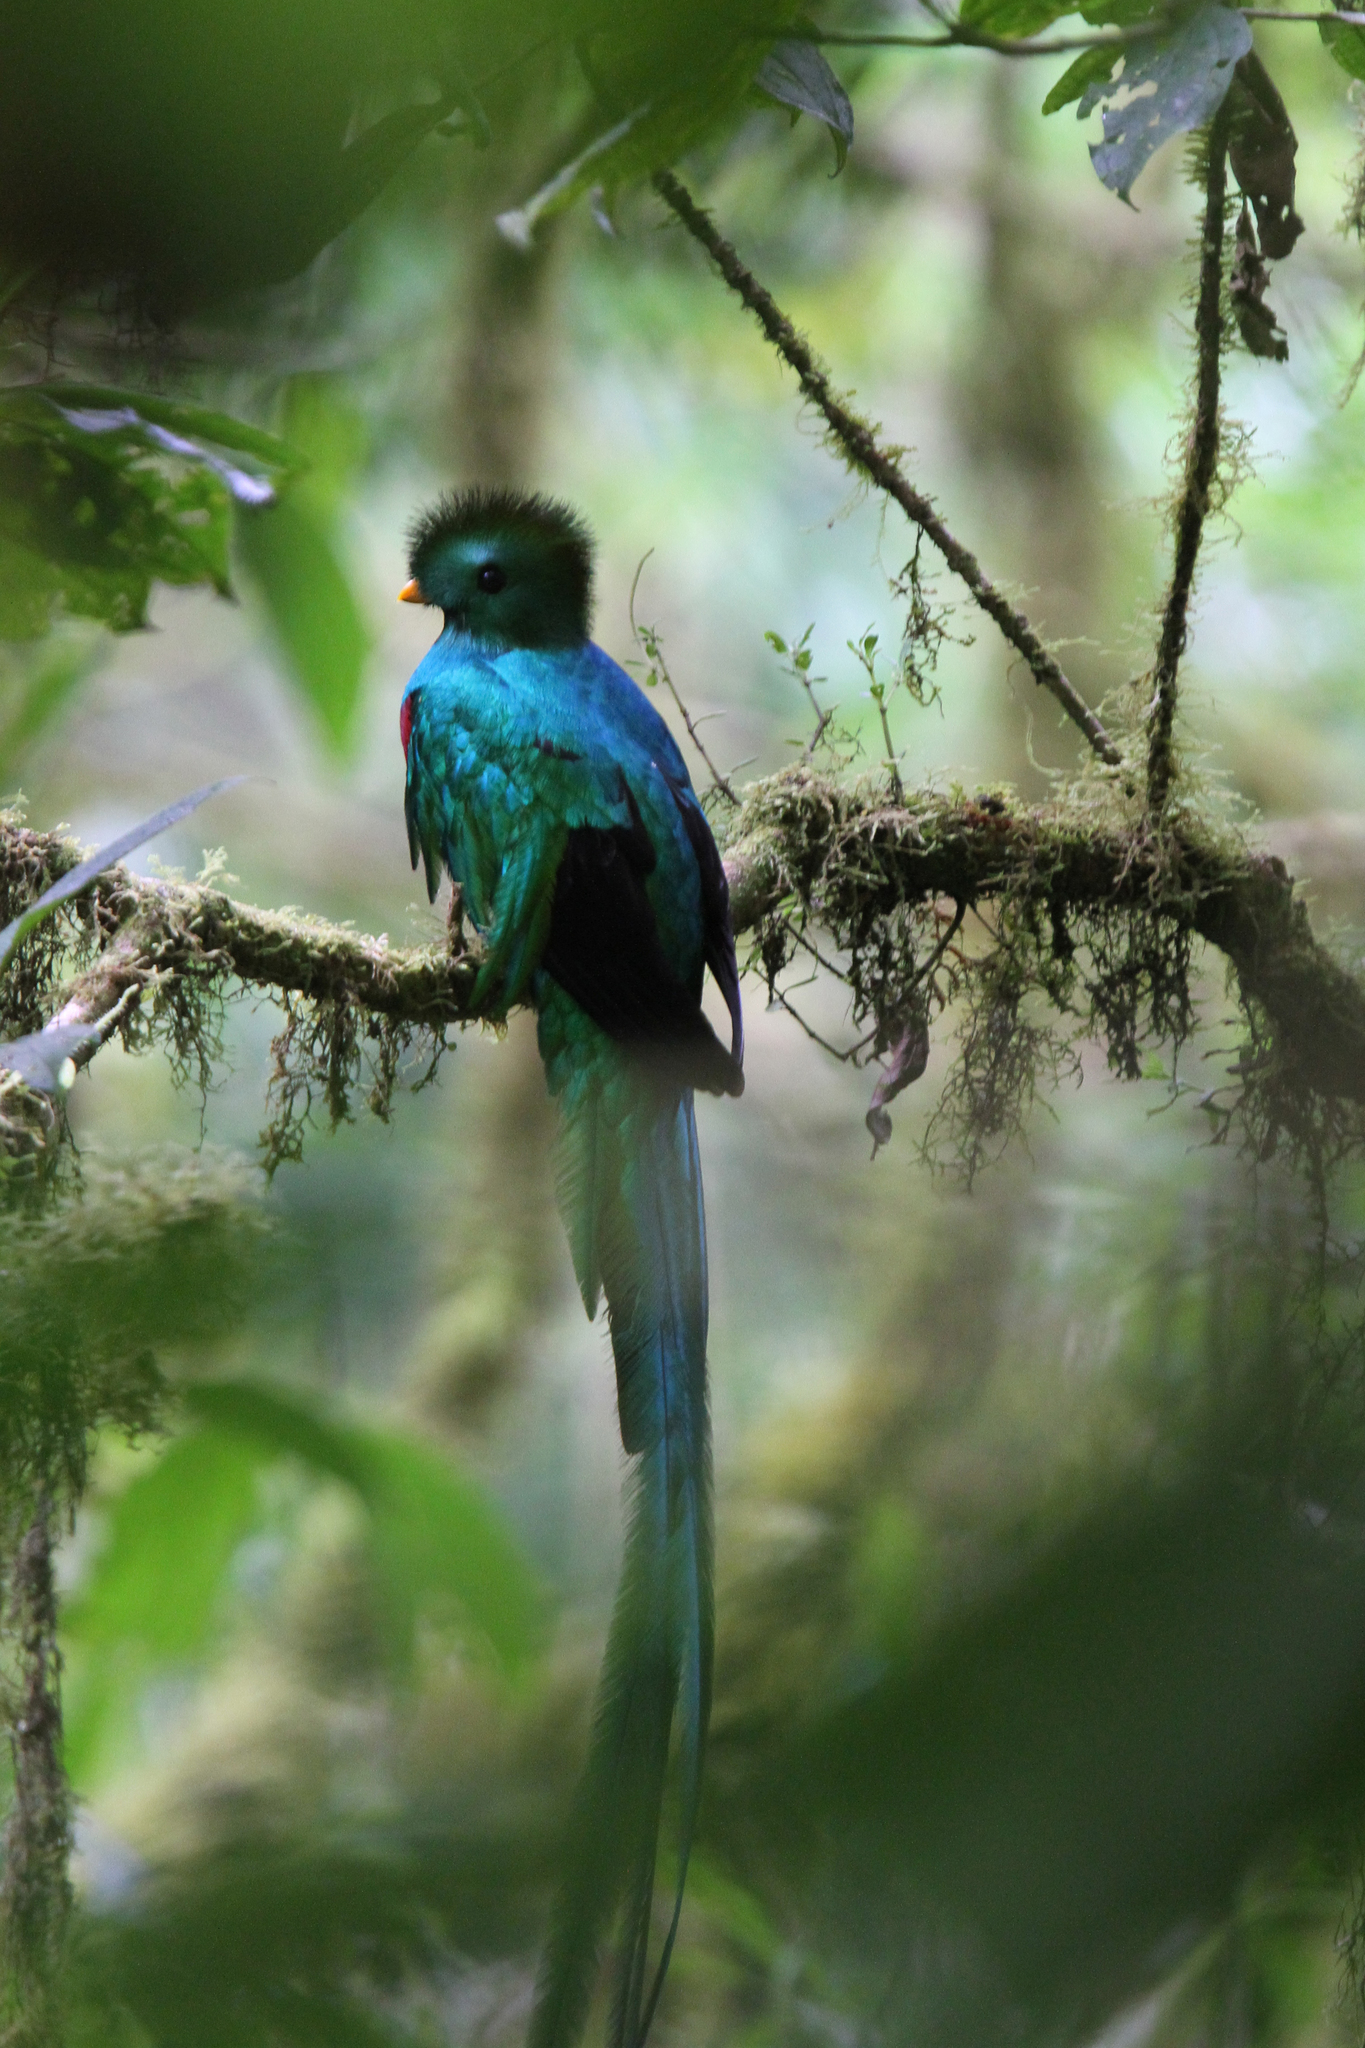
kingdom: Animalia
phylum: Chordata
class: Aves
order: Trogoniformes
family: Trogonidae
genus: Pharomachrus
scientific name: Pharomachrus mocinno
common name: Resplendent quetzal
